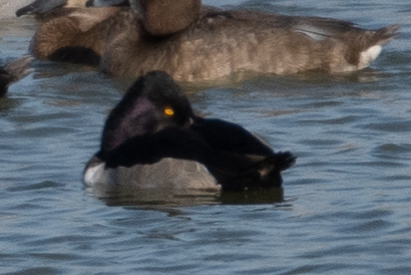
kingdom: Animalia
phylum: Chordata
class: Aves
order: Anseriformes
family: Anatidae
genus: Aythya
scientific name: Aythya collaris
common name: Ring-necked duck
